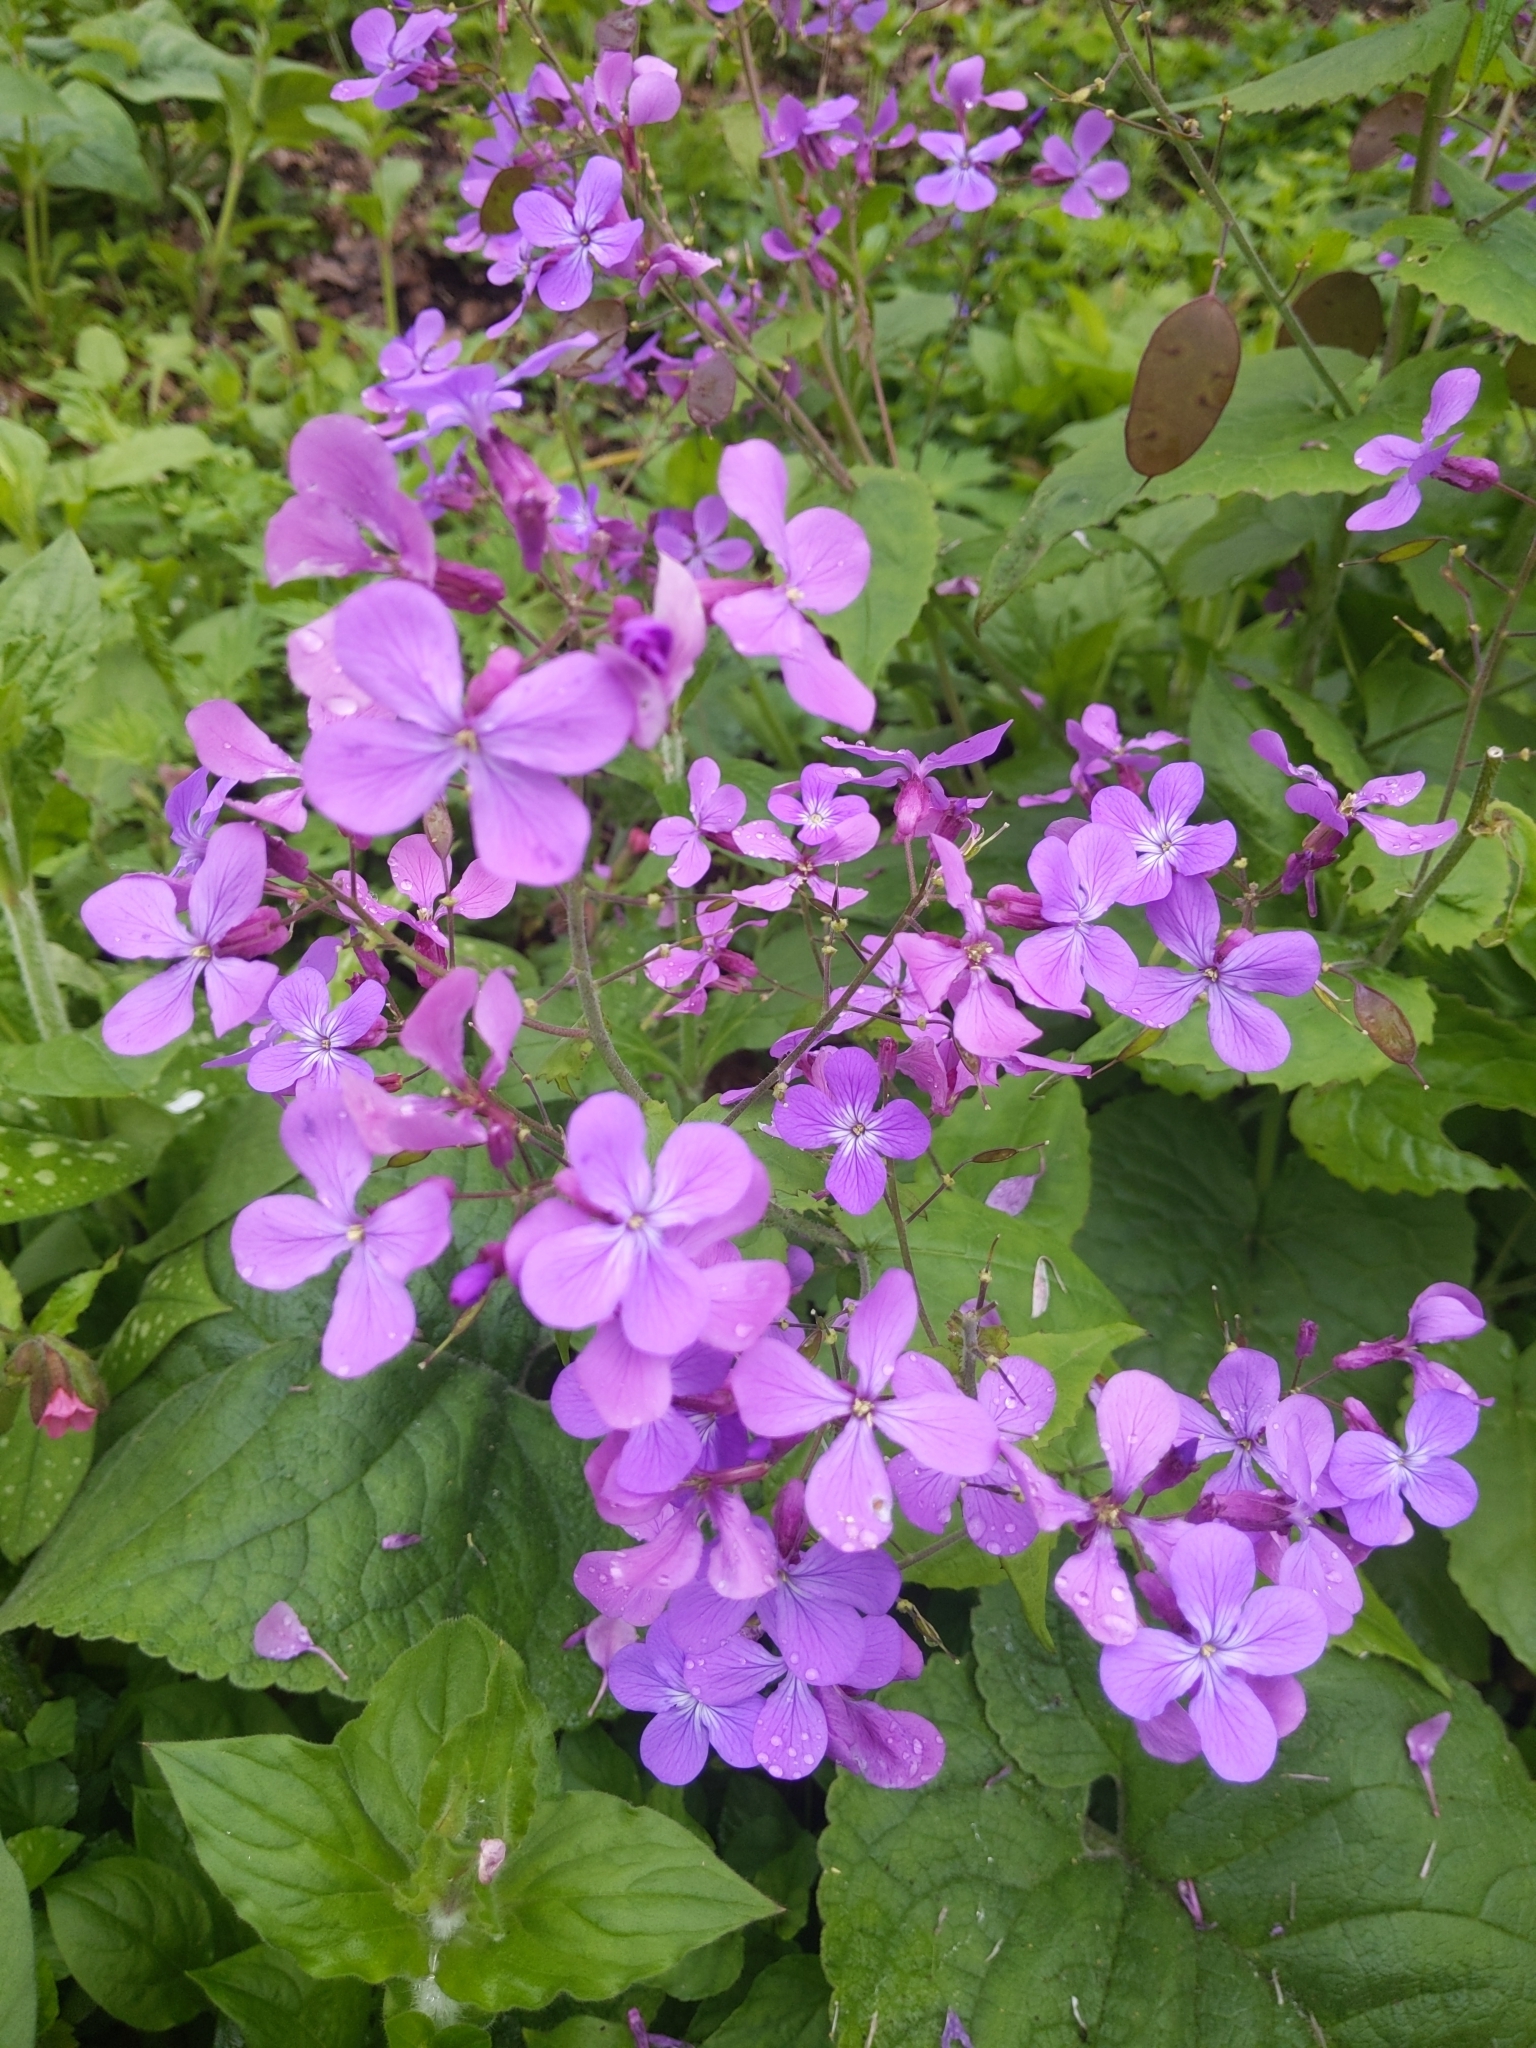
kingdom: Plantae
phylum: Tracheophyta
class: Magnoliopsida
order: Brassicales
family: Brassicaceae
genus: Lunaria
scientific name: Lunaria annua
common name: Honesty
